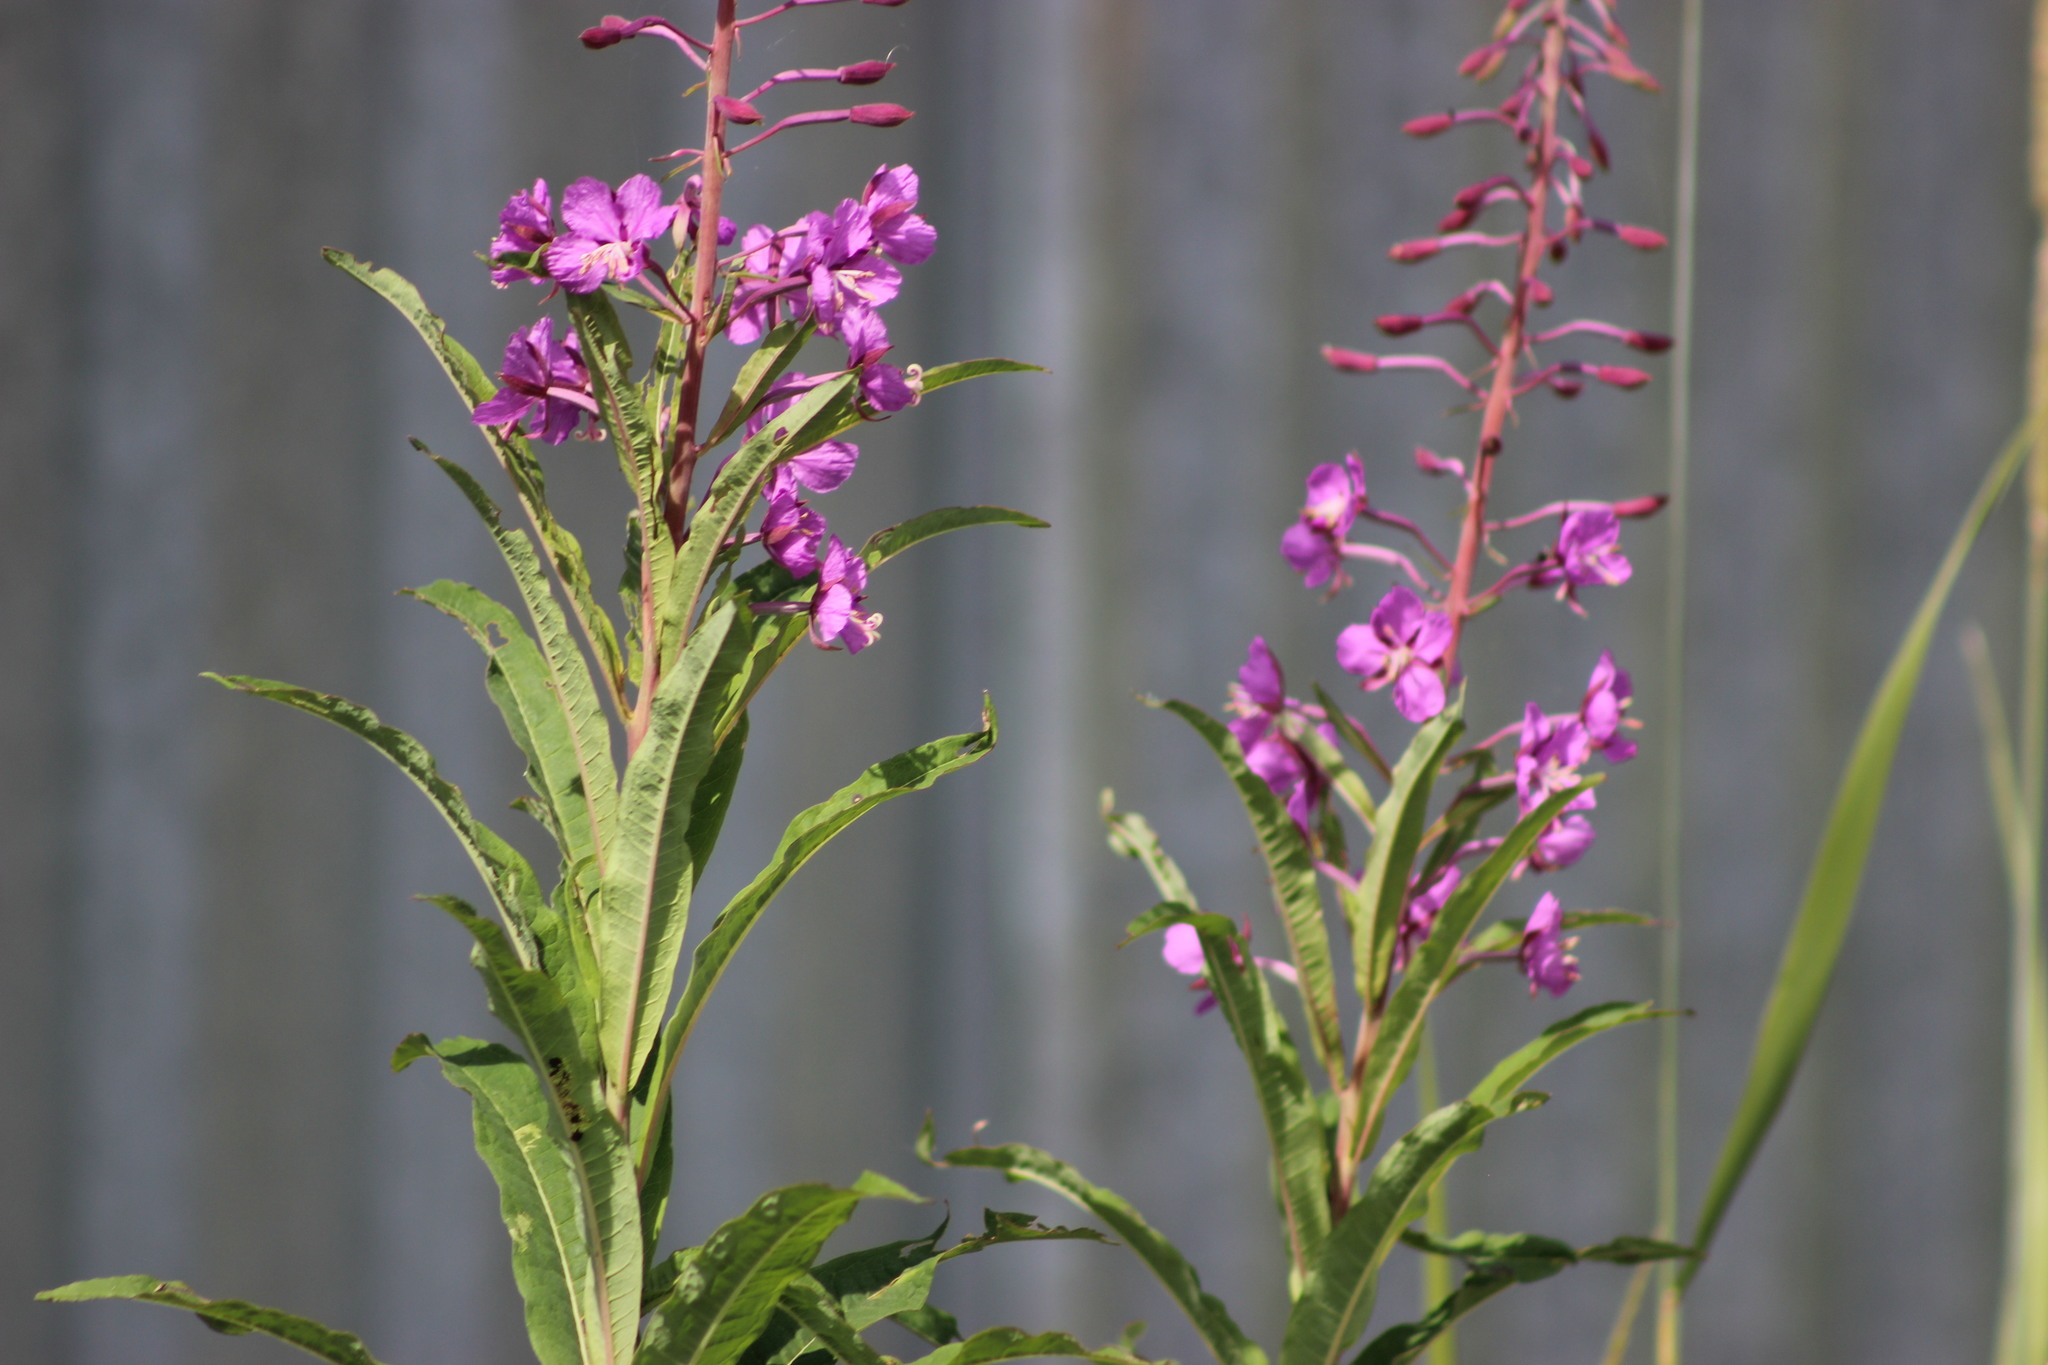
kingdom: Plantae
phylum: Tracheophyta
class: Magnoliopsida
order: Myrtales
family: Onagraceae
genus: Chamaenerion
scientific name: Chamaenerion angustifolium
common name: Fireweed
